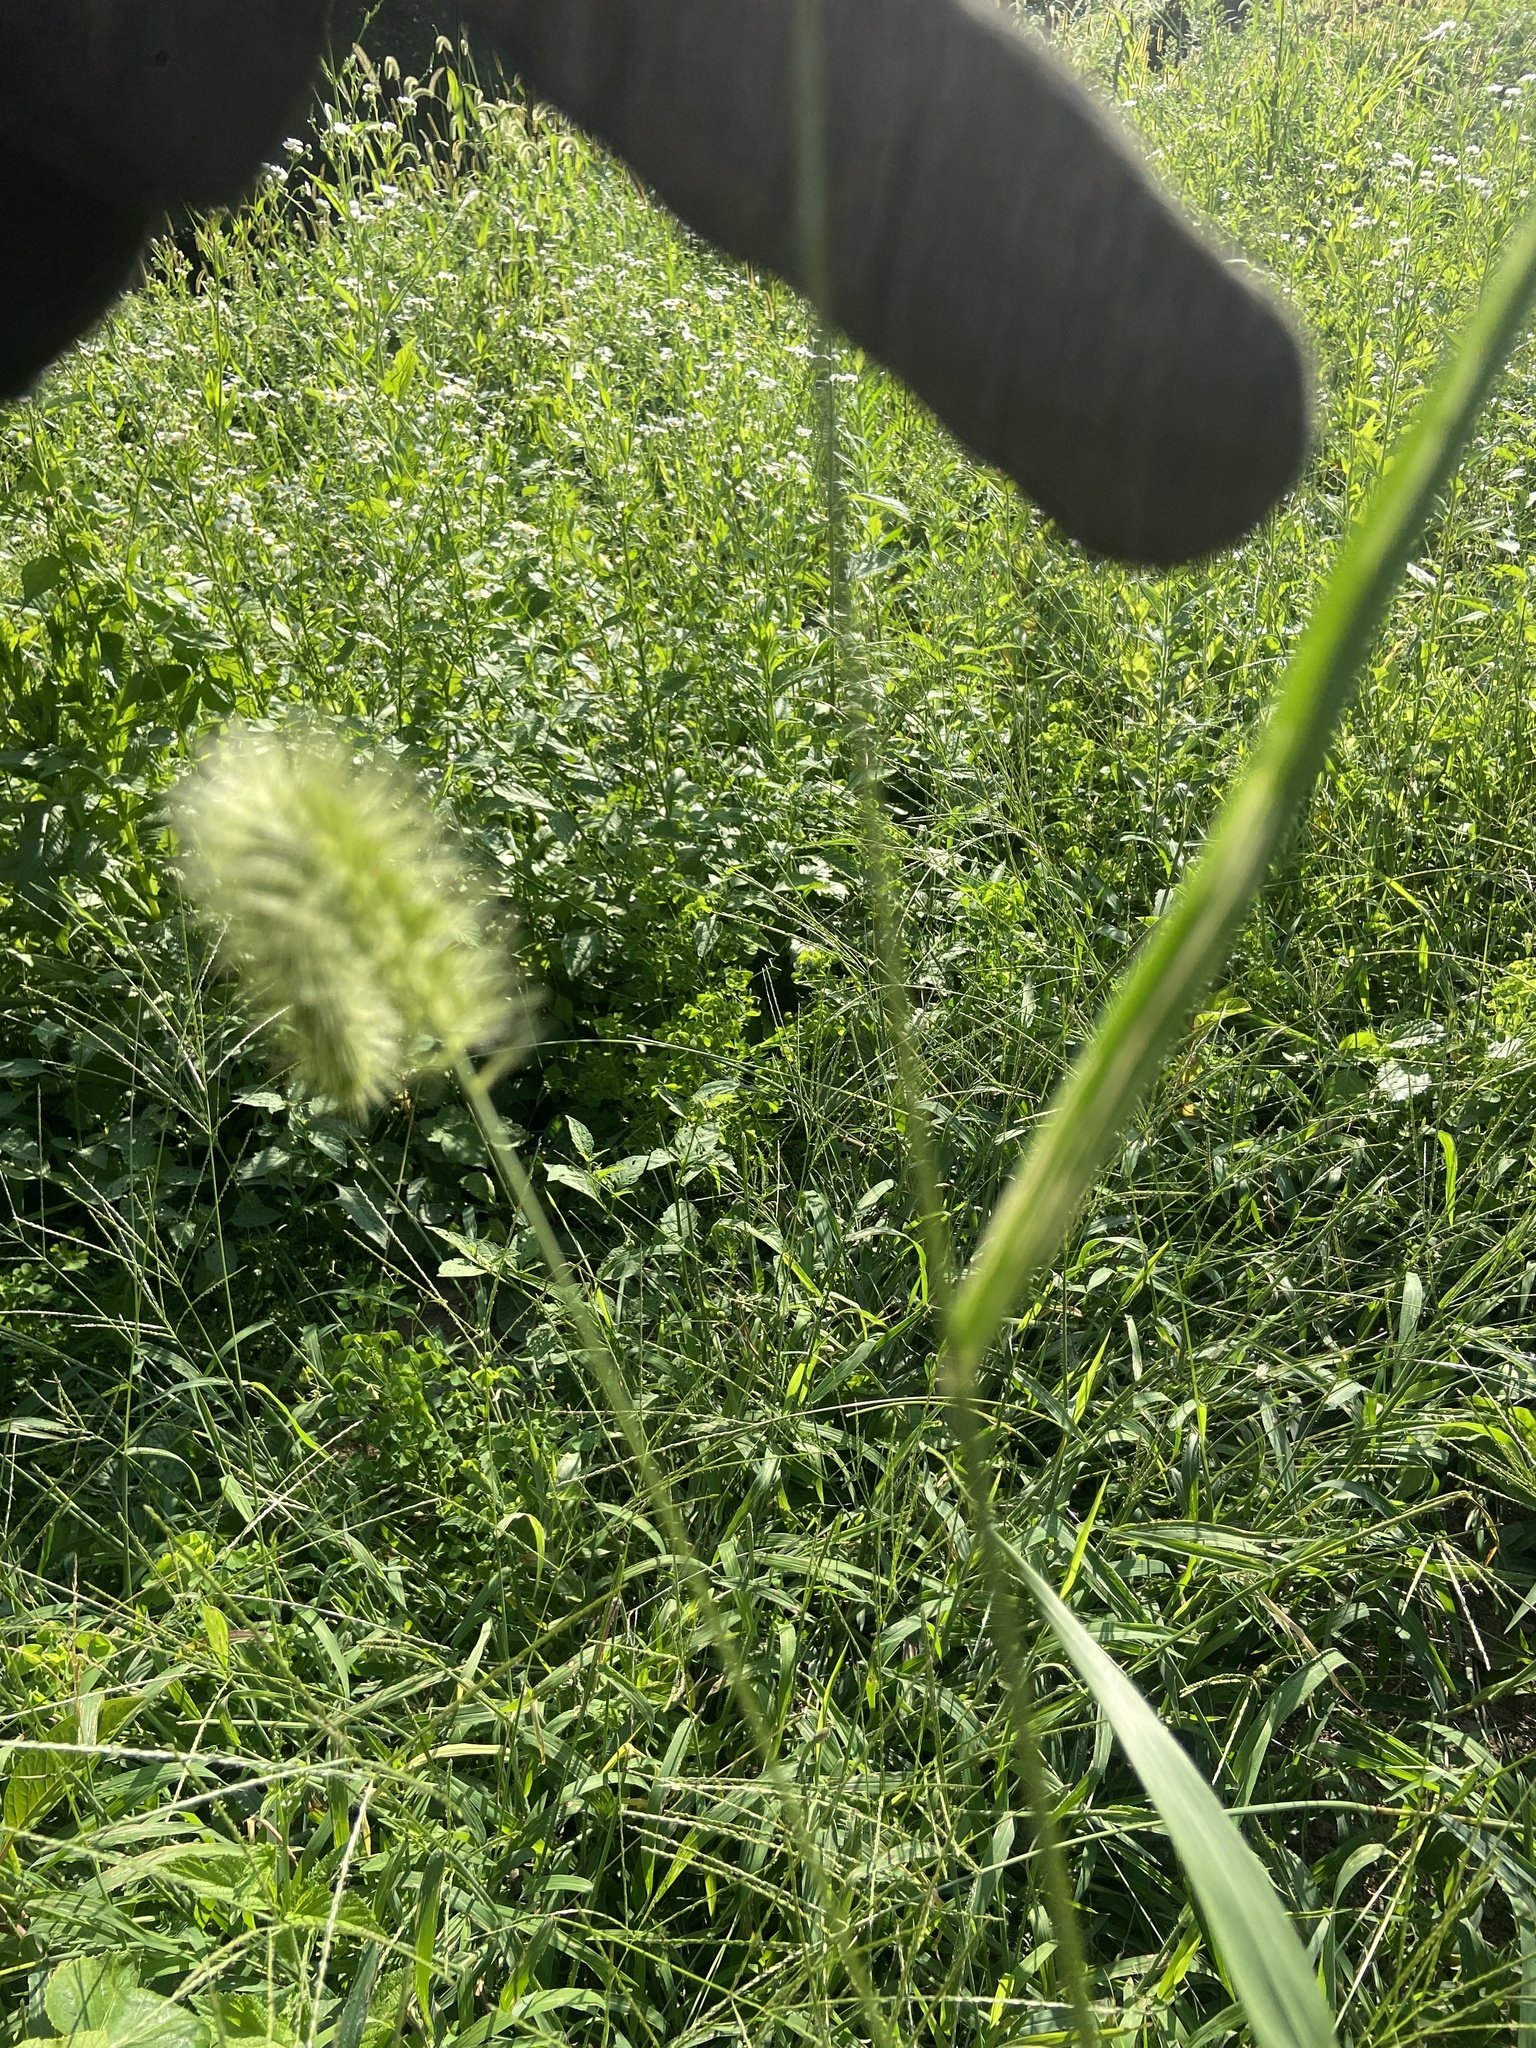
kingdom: Plantae
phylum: Tracheophyta
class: Liliopsida
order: Poales
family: Poaceae
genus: Setaria
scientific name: Setaria faberi
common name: Nodding bristle-grass
